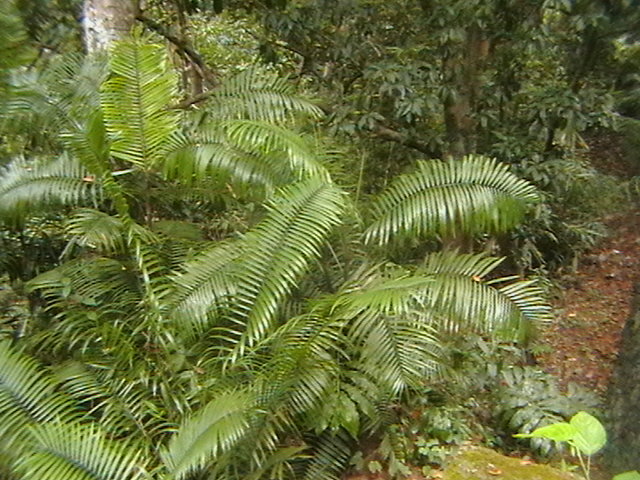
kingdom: Plantae
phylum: Tracheophyta
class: Liliopsida
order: Arecales
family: Arecaceae
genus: Arenga
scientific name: Arenga engleri
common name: Formosan sugar palm
